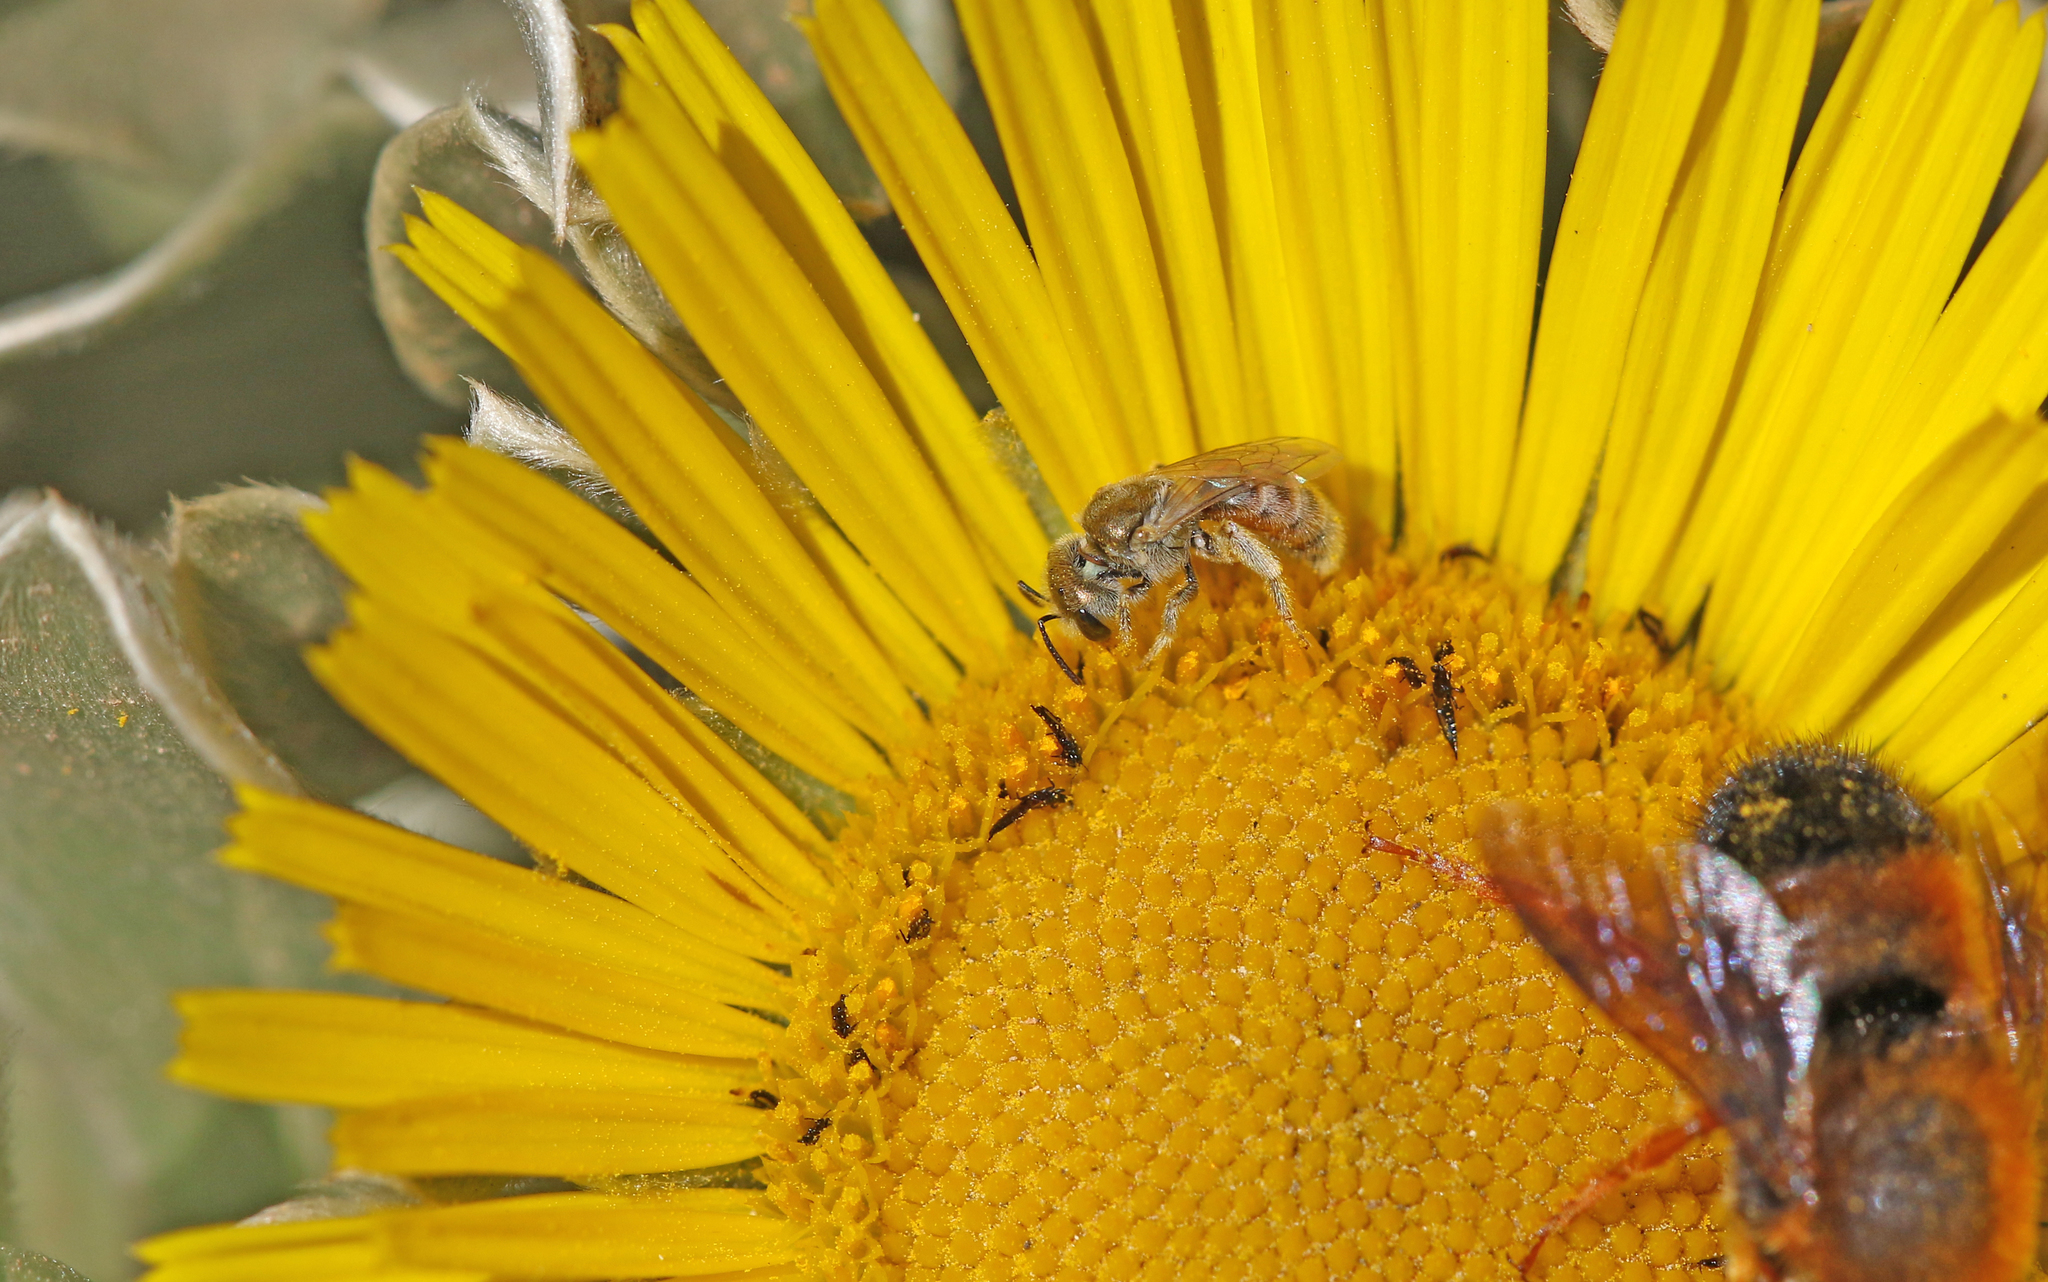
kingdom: Animalia
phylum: Arthropoda
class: Insecta
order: Hymenoptera
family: Halictidae
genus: Halictus
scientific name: Halictus concinnus
